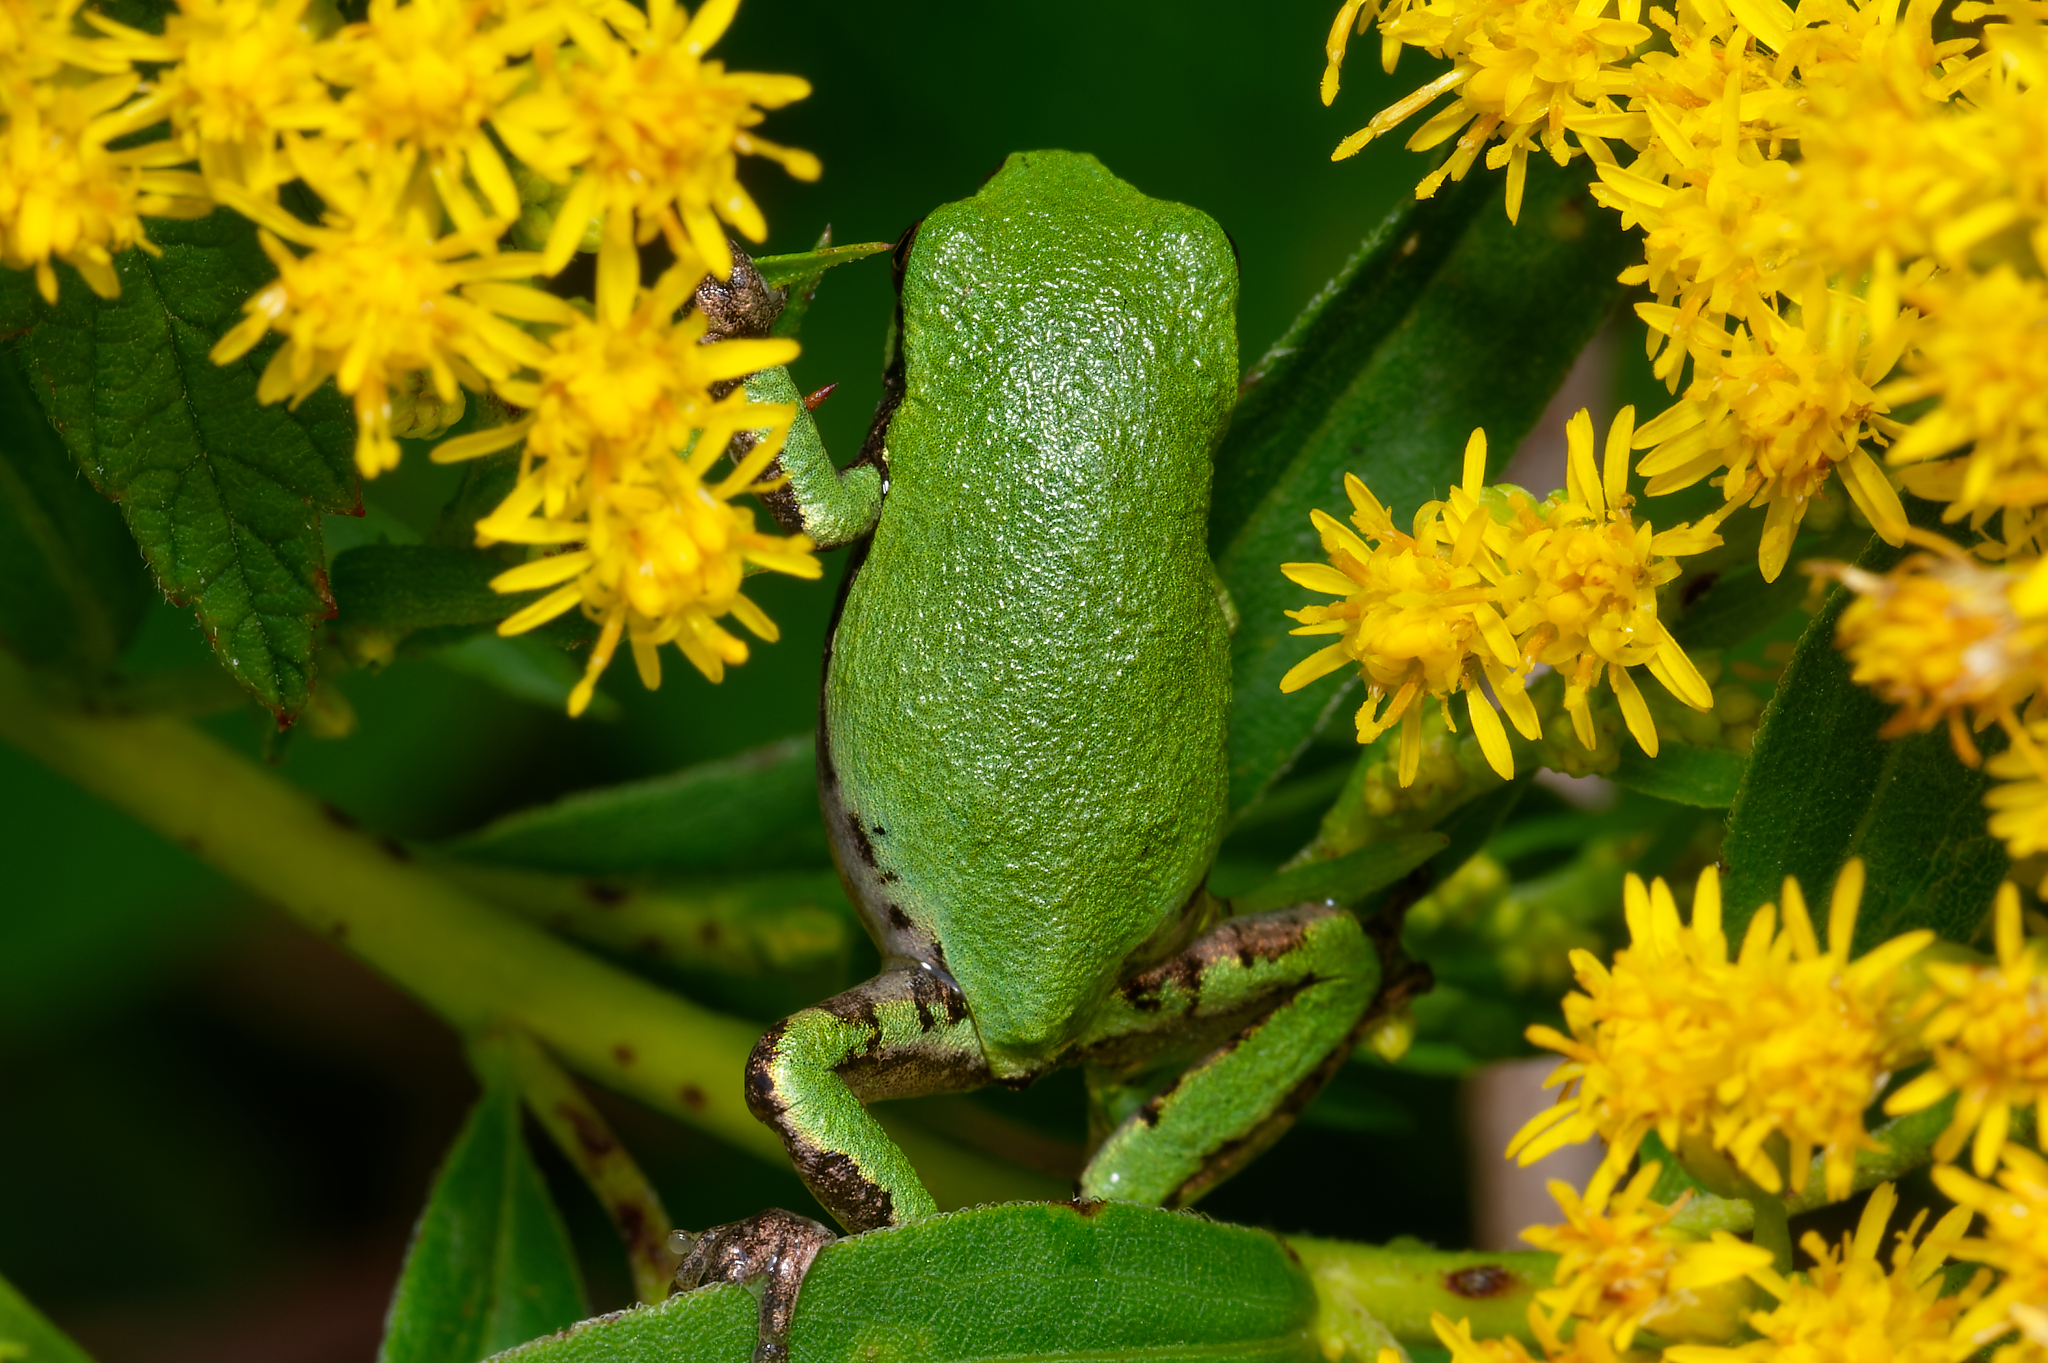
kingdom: Animalia
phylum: Chordata
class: Amphibia
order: Anura
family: Hylidae
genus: Hyla
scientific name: Hyla
